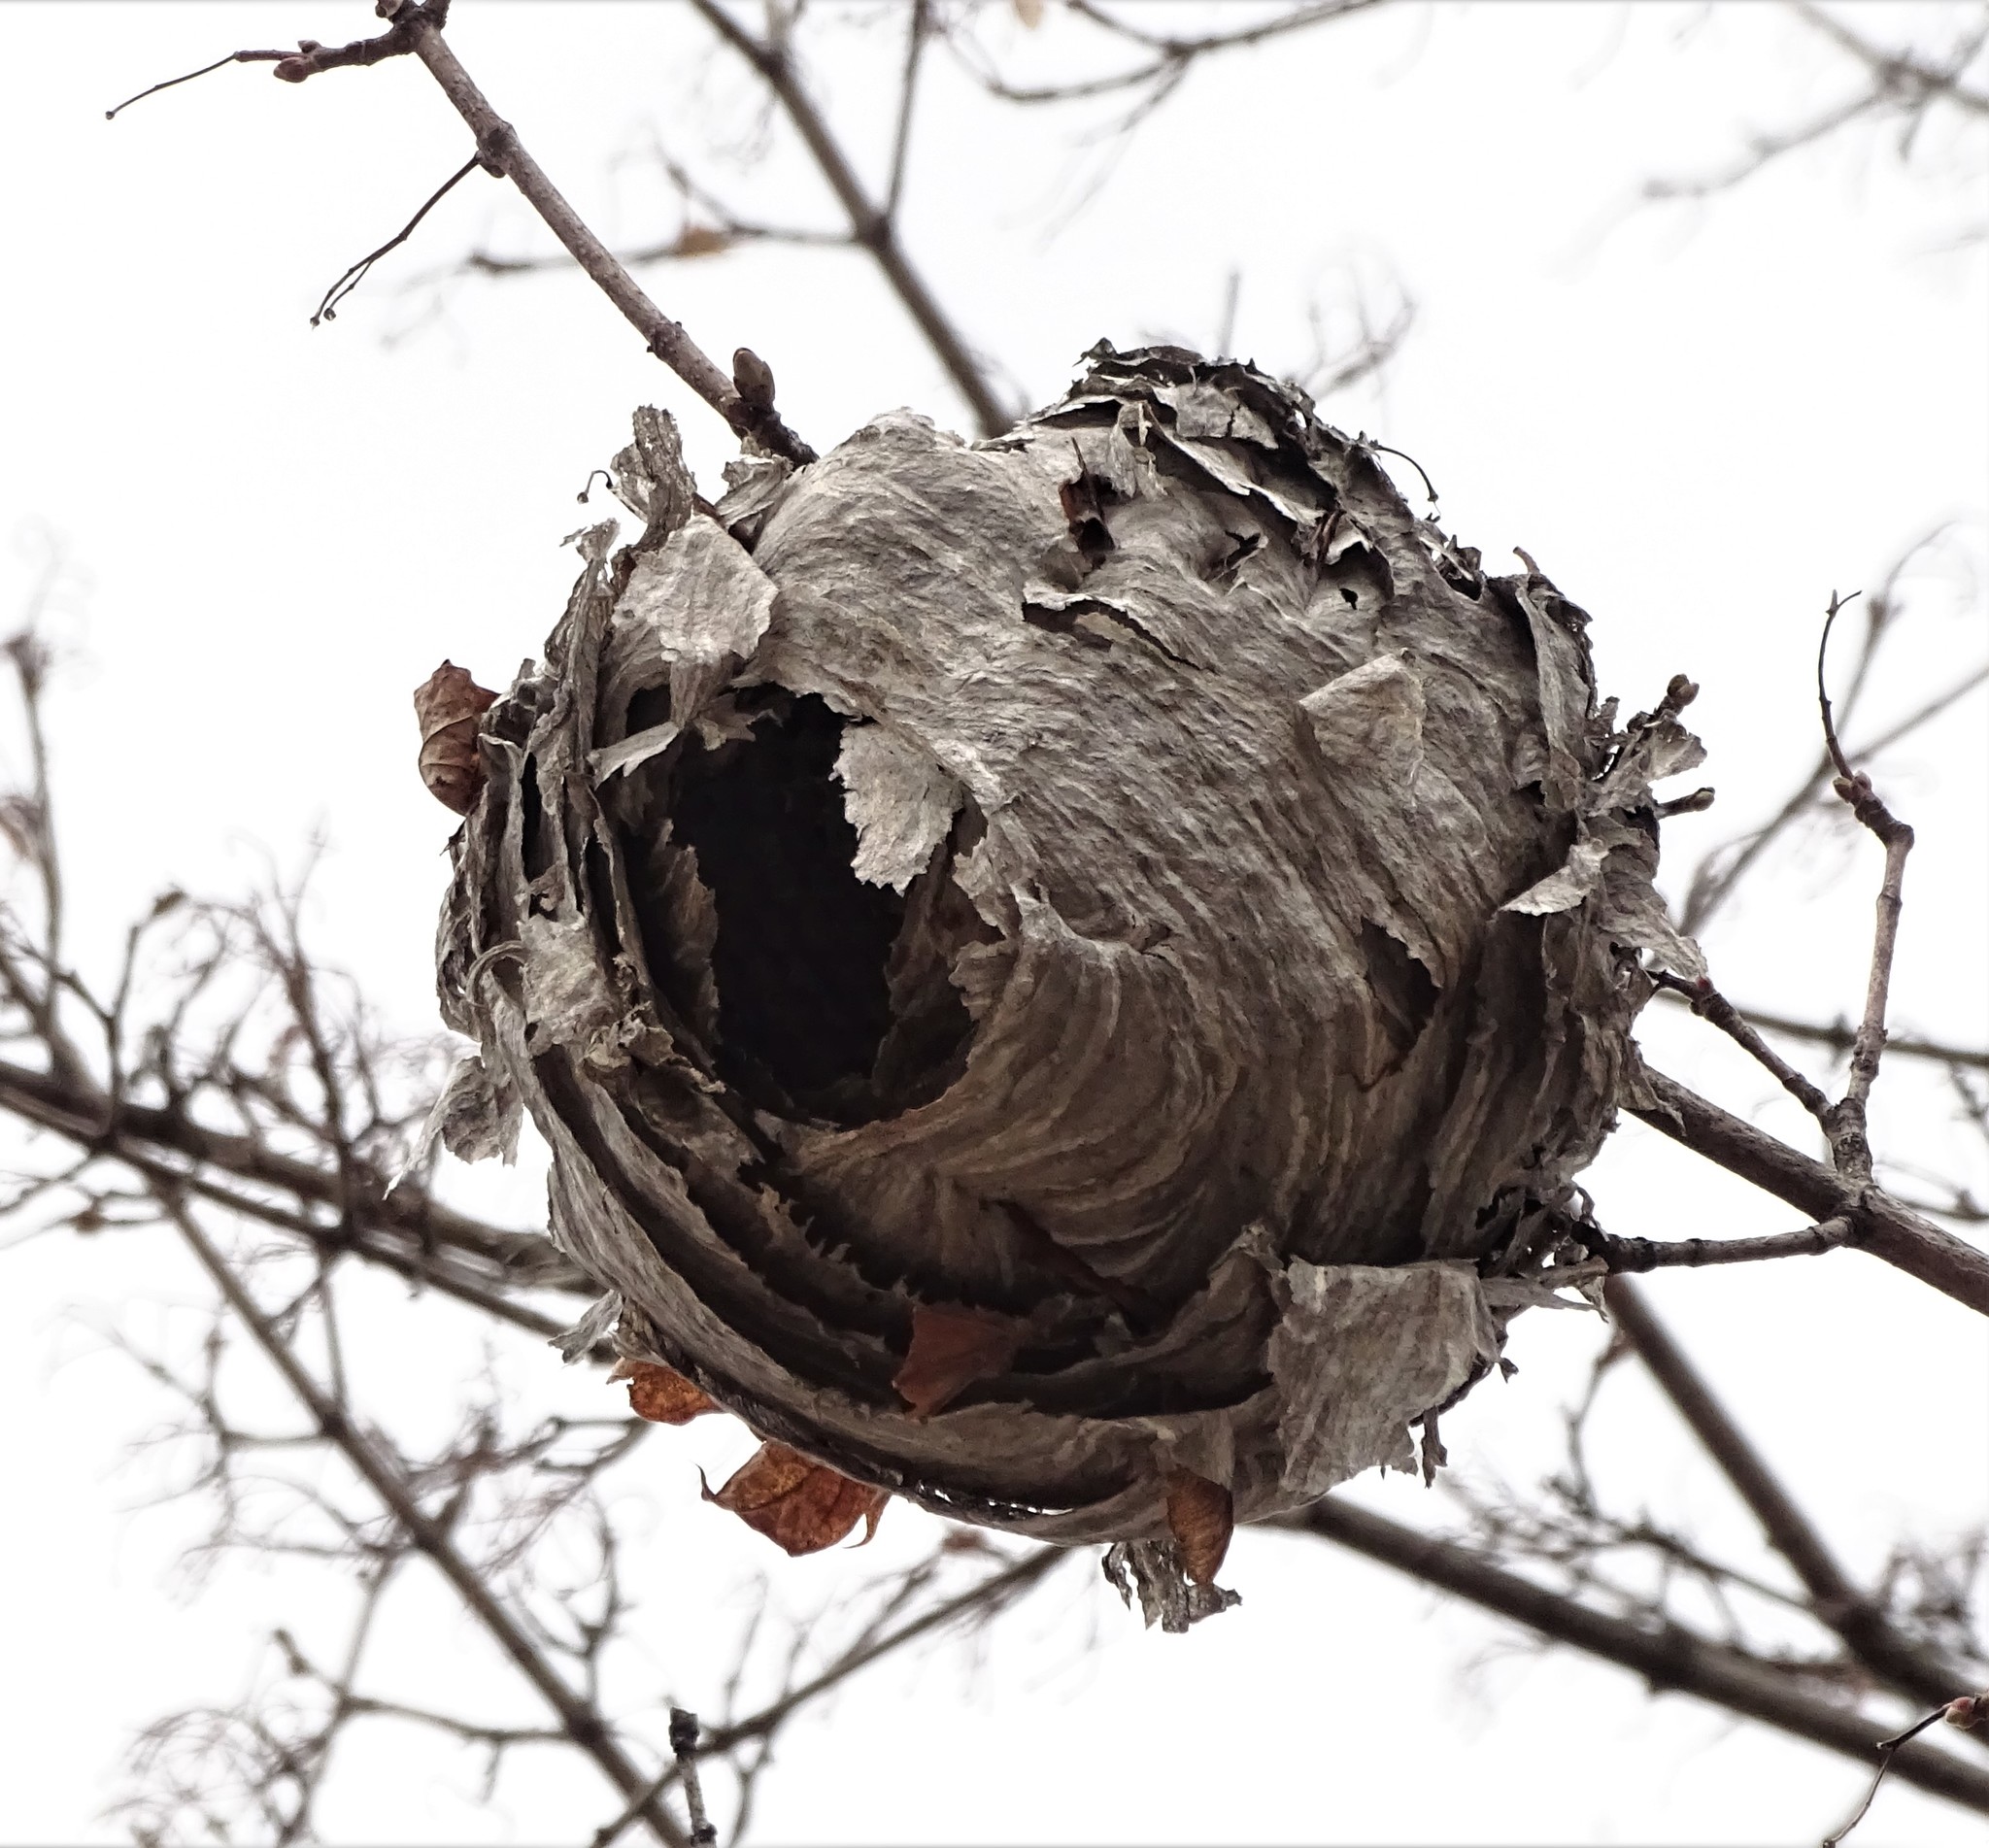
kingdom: Animalia
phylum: Arthropoda
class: Insecta
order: Hymenoptera
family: Vespidae
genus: Dolichovespula
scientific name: Dolichovespula maculata
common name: Bald-faced hornet
